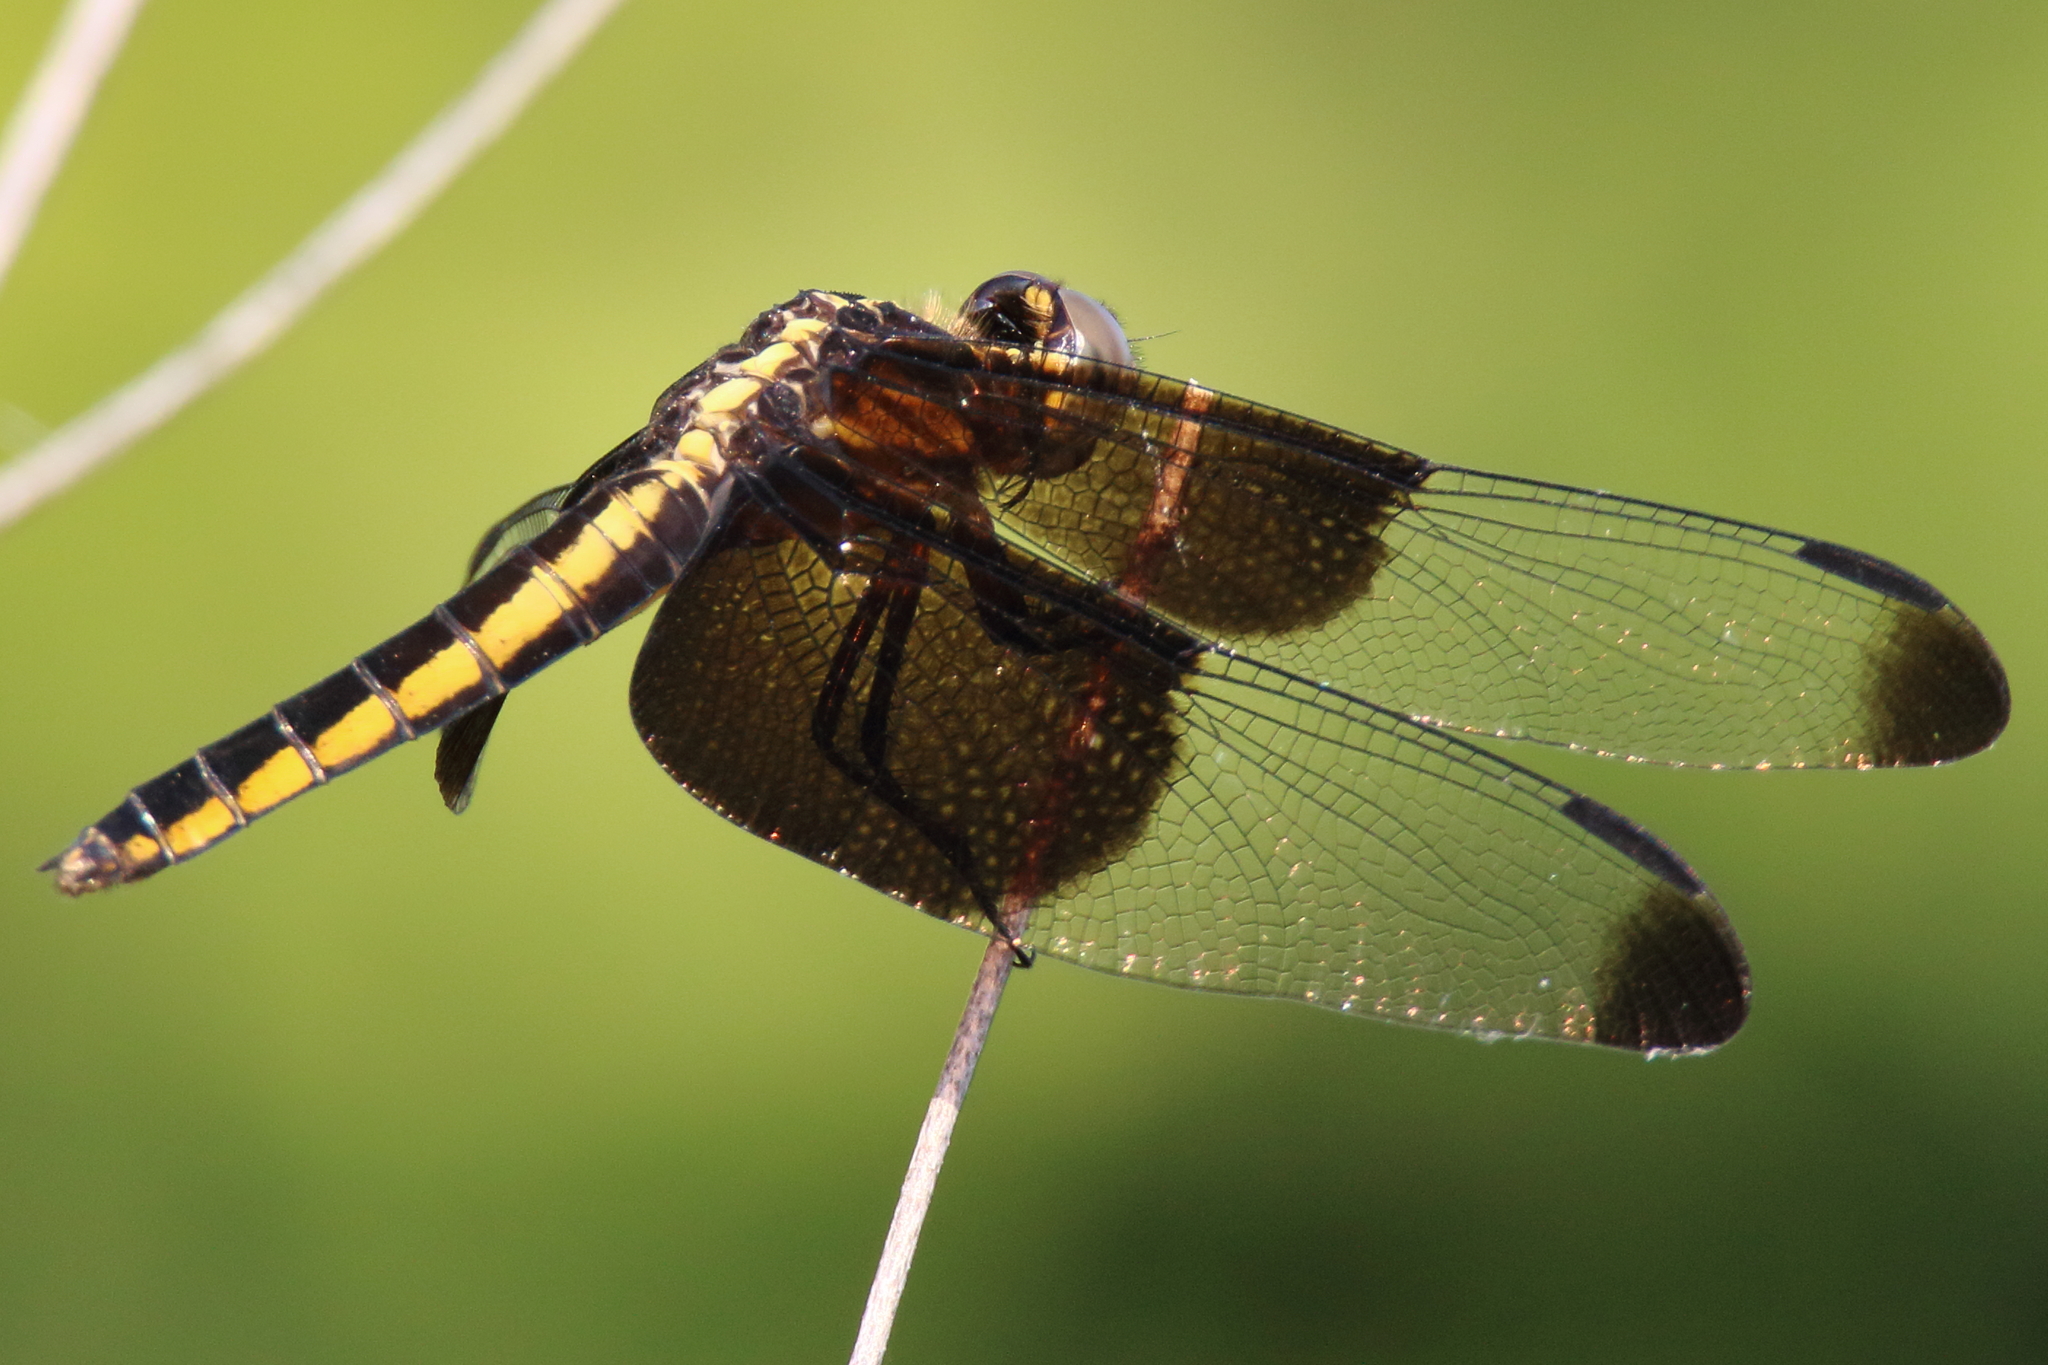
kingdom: Animalia
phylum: Arthropoda
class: Insecta
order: Odonata
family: Libellulidae
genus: Libellula
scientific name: Libellula luctuosa
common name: Widow skimmer
